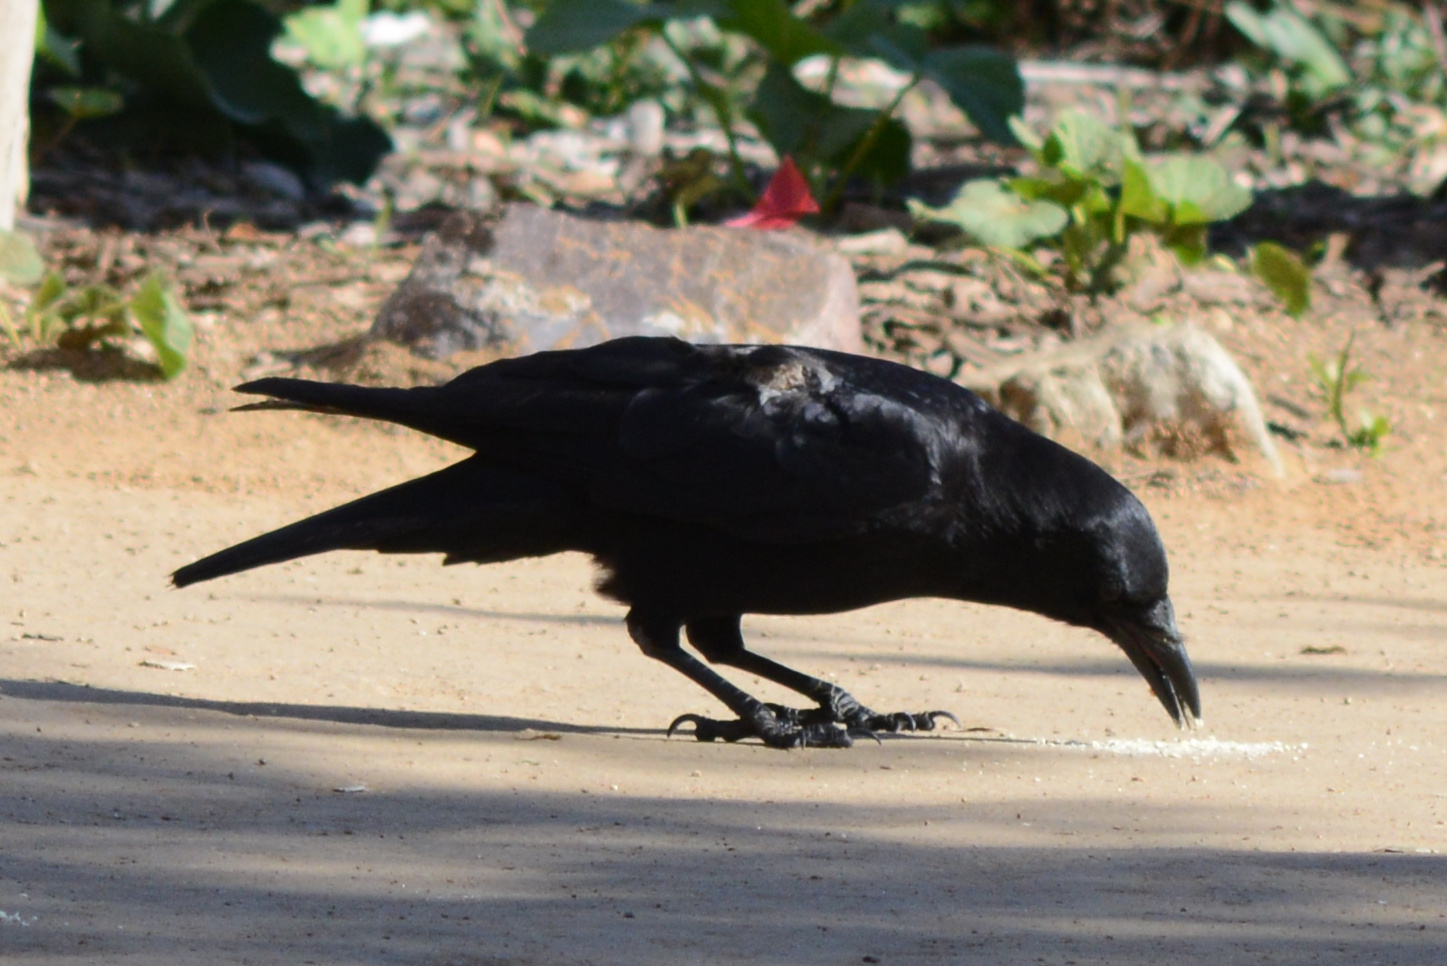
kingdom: Animalia
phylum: Chordata
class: Aves
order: Passeriformes
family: Corvidae
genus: Corvus
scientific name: Corvus brachyrhynchos
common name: American crow
